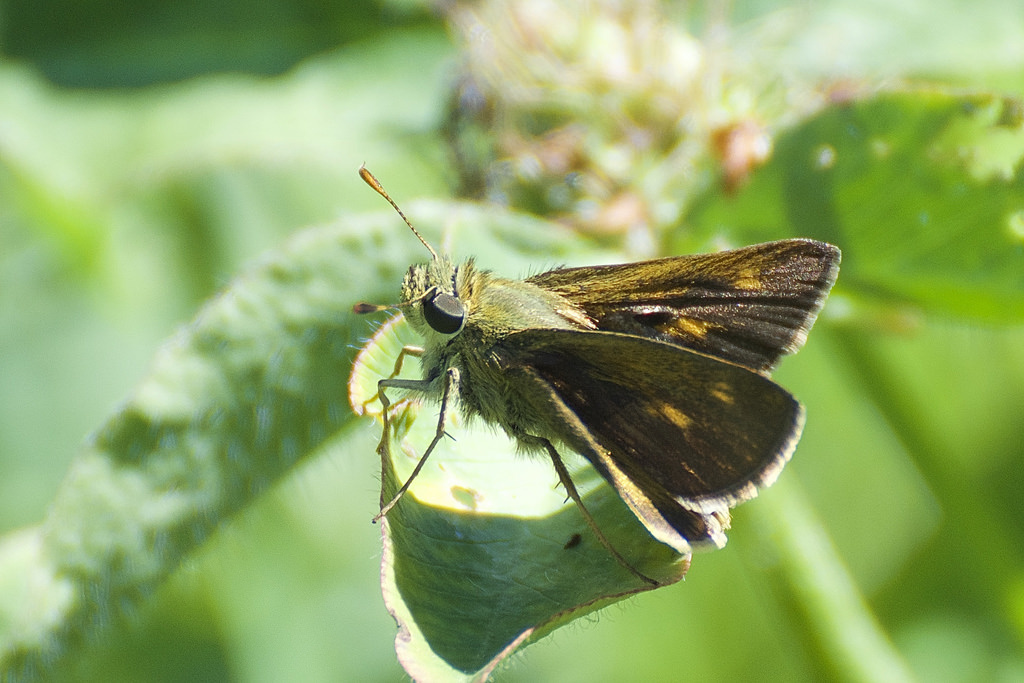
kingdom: Animalia
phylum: Arthropoda
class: Insecta
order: Lepidoptera
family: Hesperiidae
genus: Polites
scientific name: Polites egeremet
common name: Northern broken-dash
